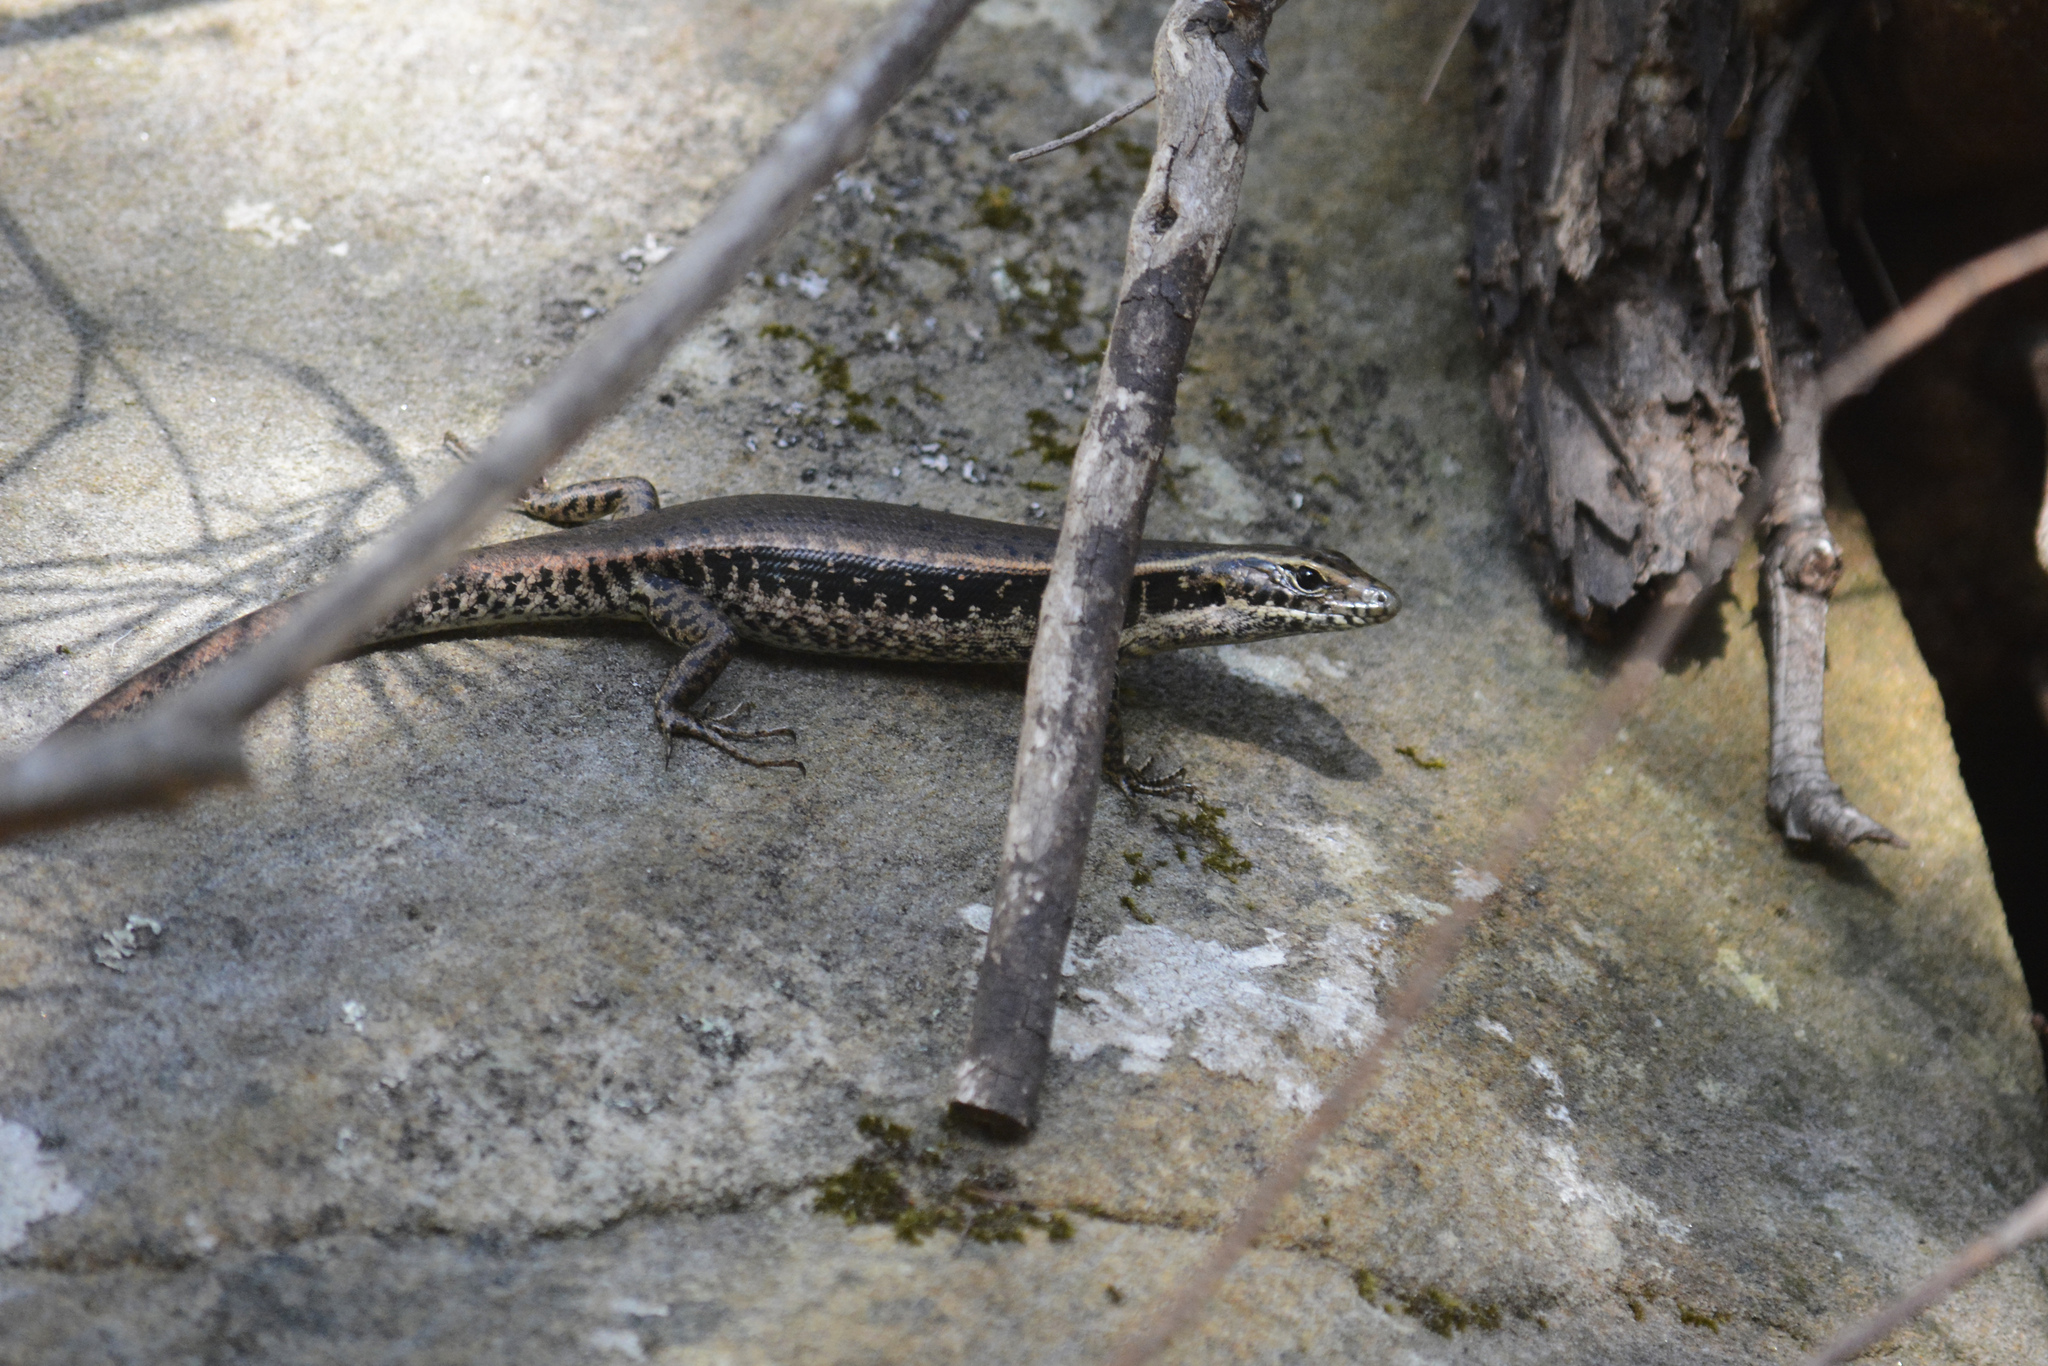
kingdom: Animalia
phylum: Chordata
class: Squamata
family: Scincidae
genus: Eulamprus
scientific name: Eulamprus quoyii
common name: Eastern water skink
